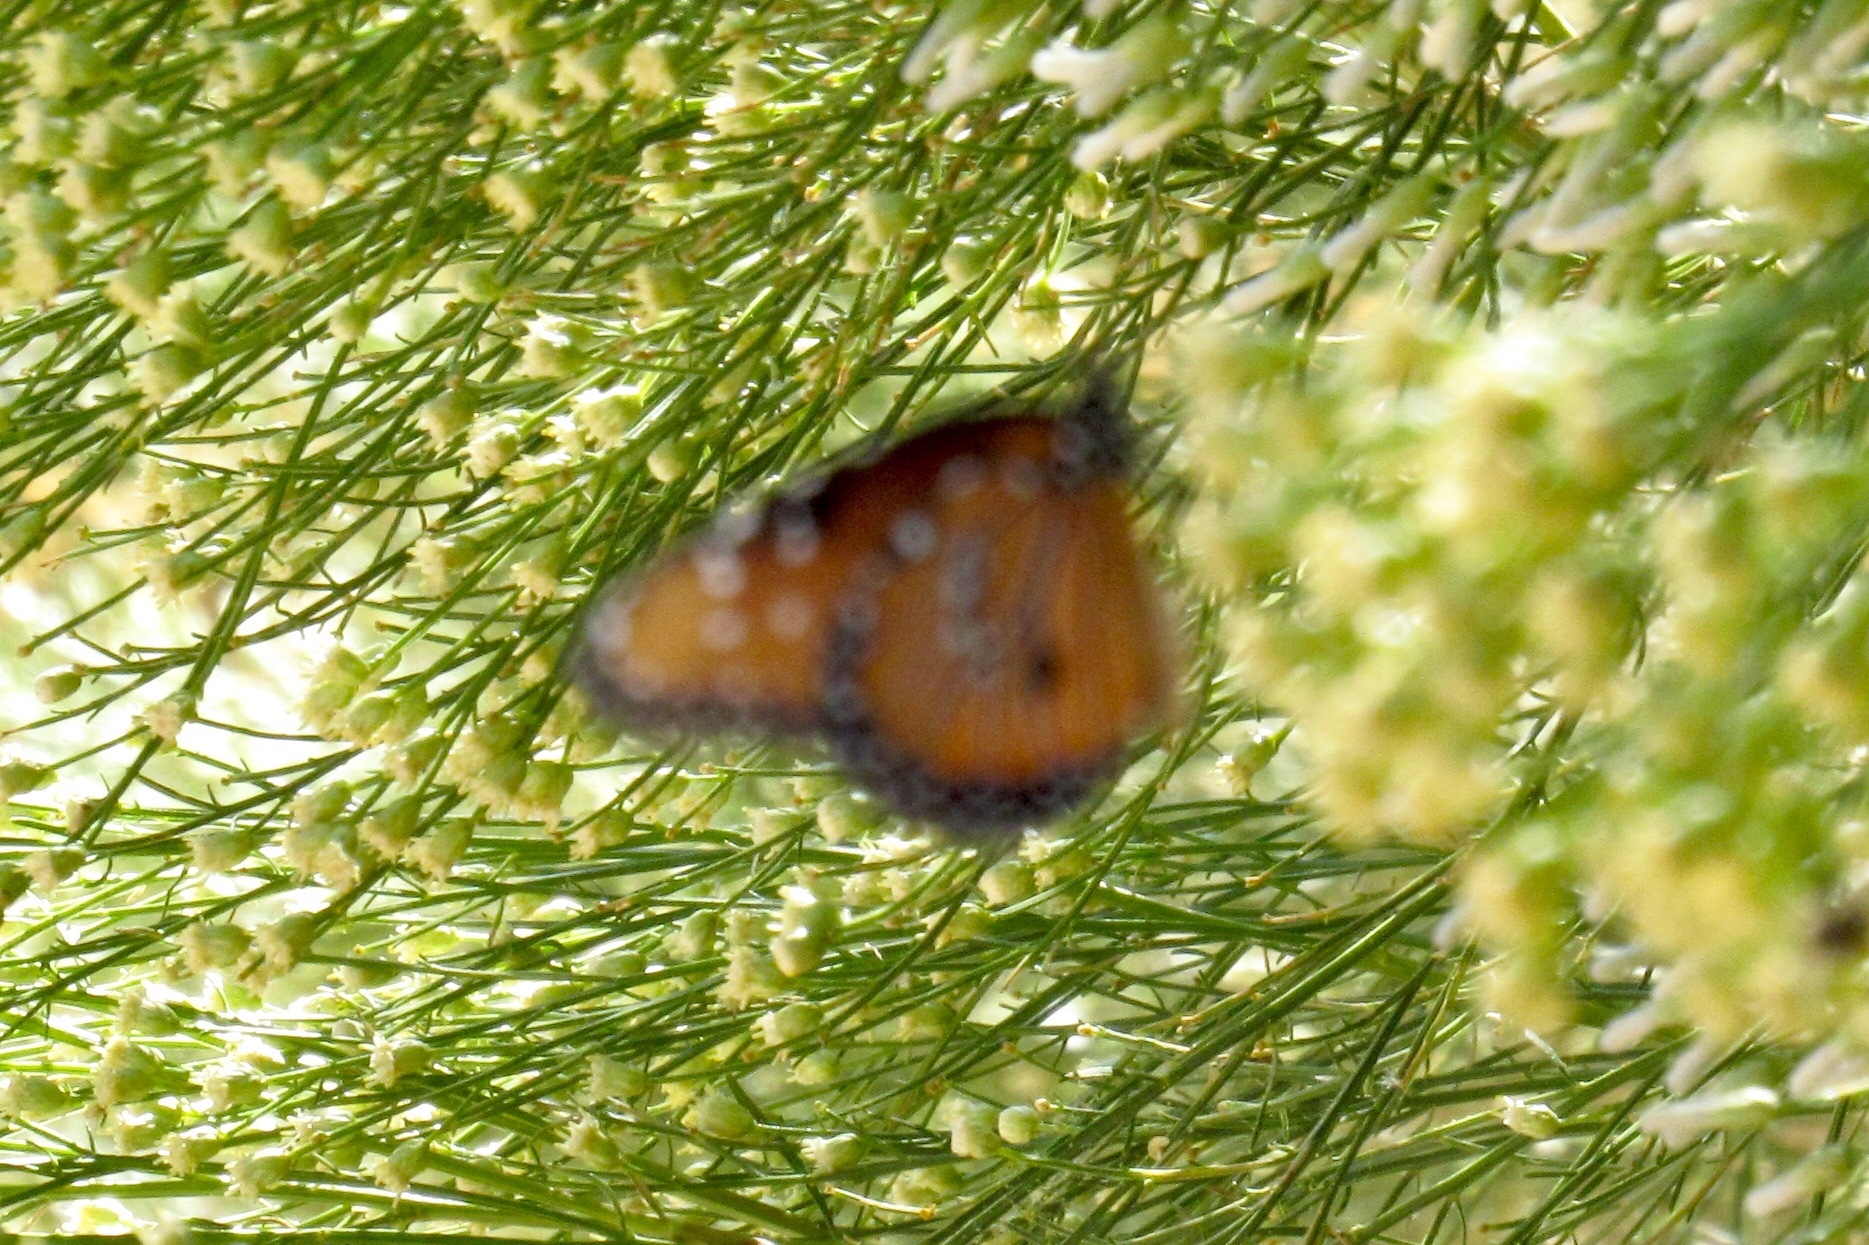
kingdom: Animalia
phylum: Arthropoda
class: Insecta
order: Lepidoptera
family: Nymphalidae
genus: Danaus
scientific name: Danaus gilippus
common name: Queen
